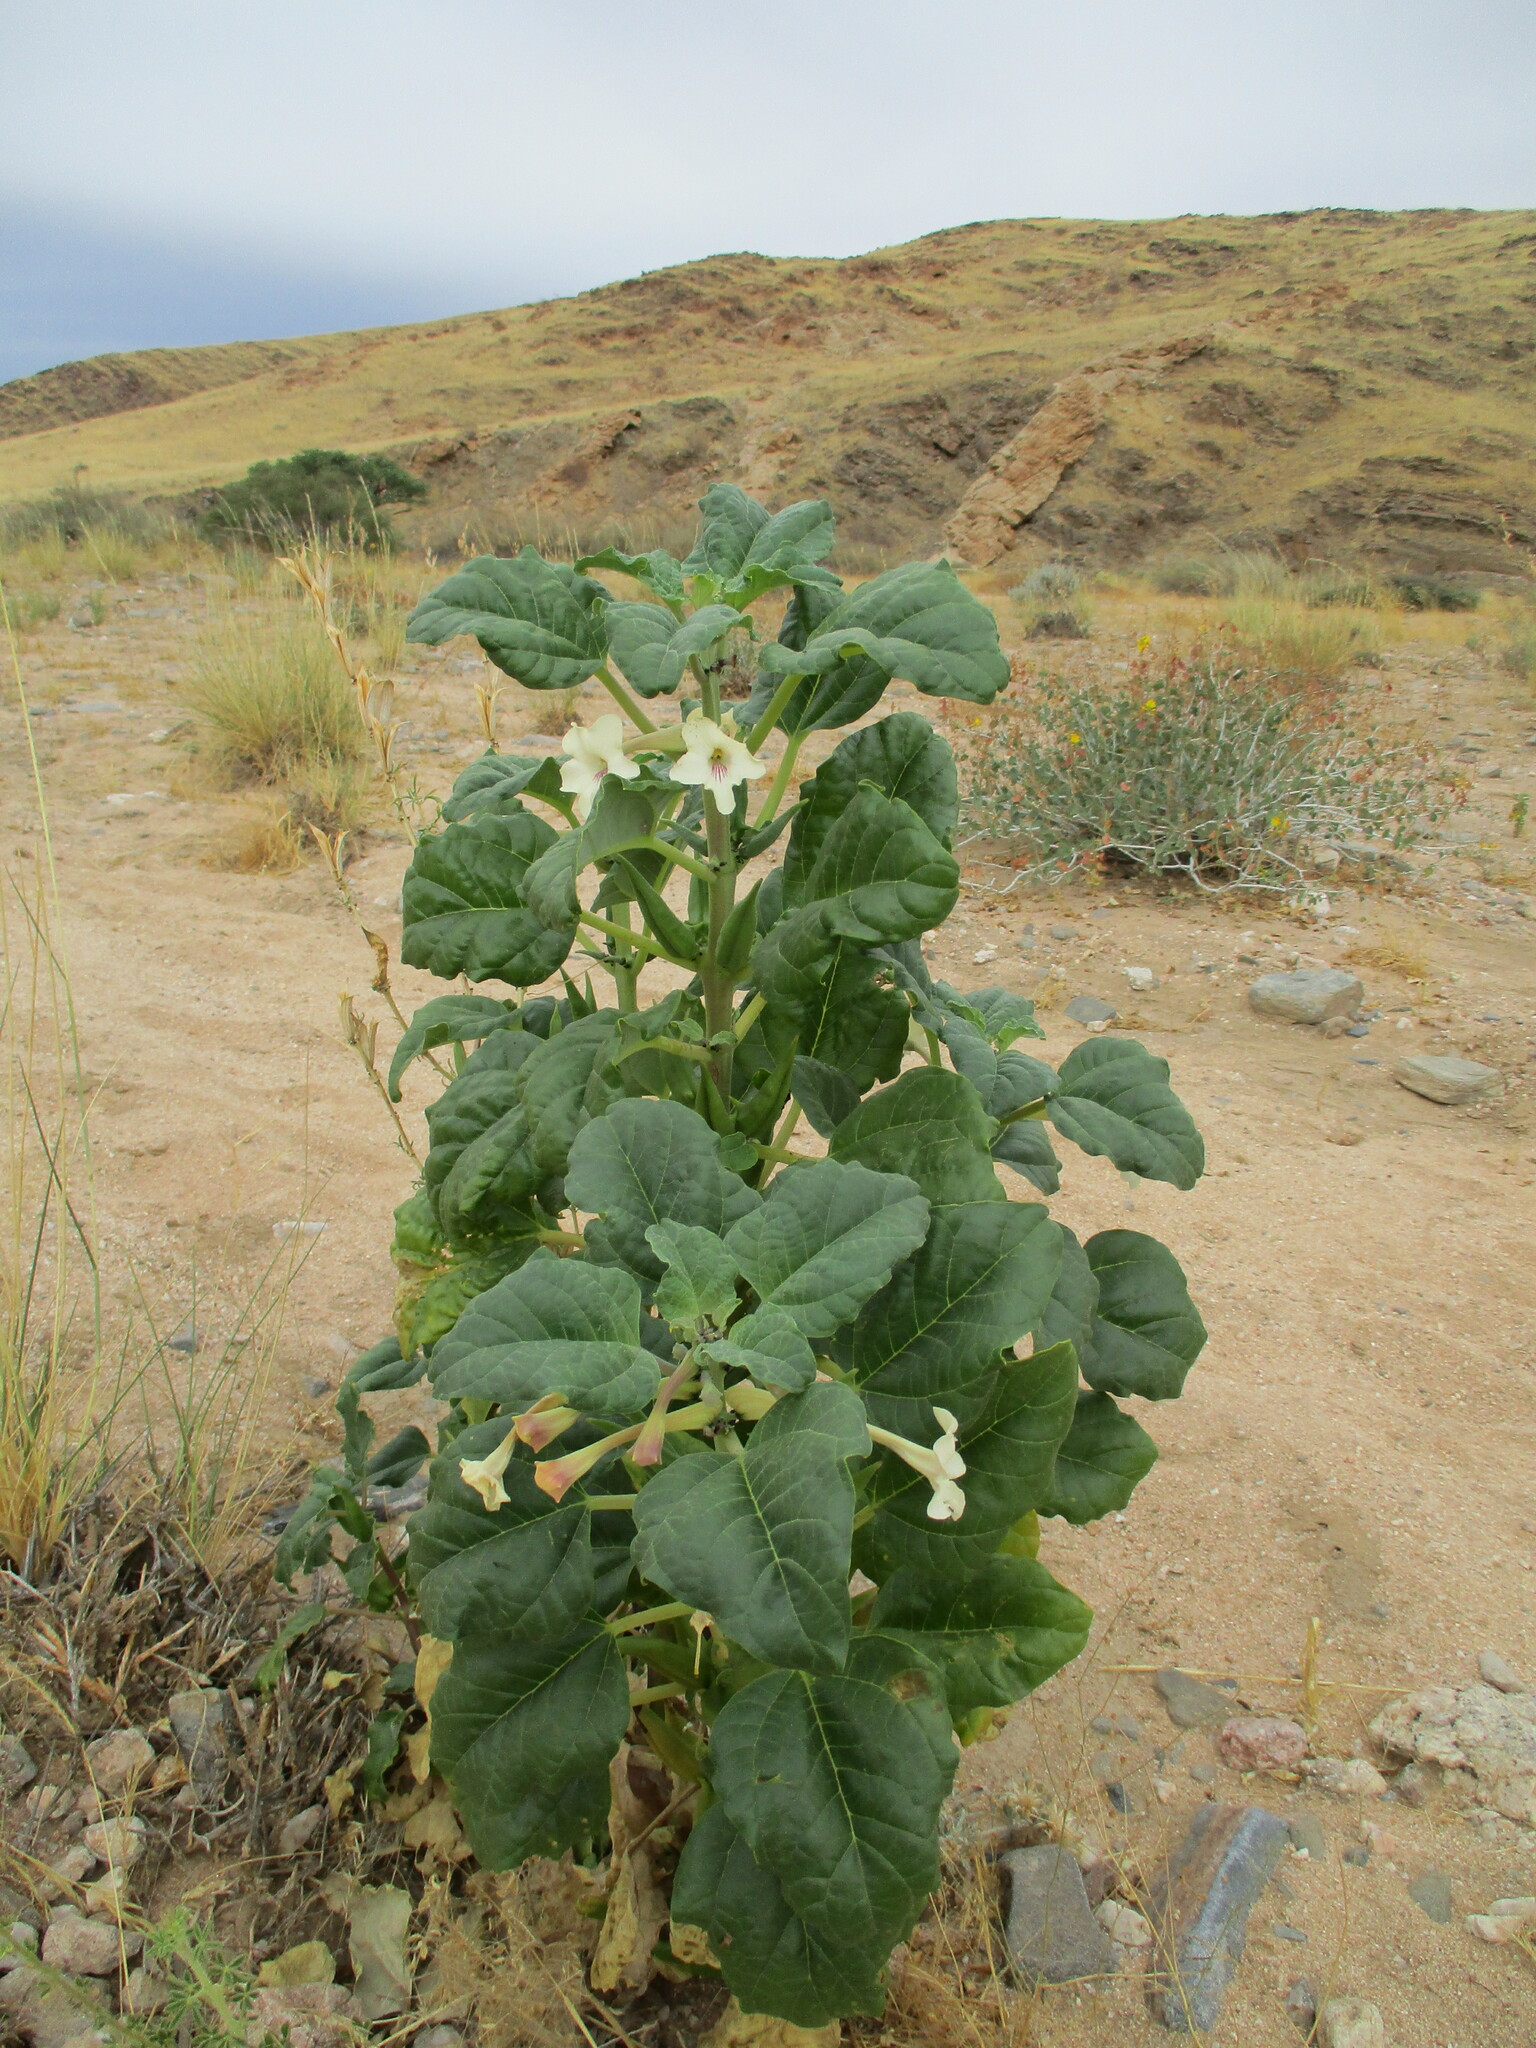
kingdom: Plantae
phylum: Tracheophyta
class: Magnoliopsida
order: Lamiales
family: Pedaliaceae
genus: Rogeria
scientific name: Rogeria longiflora
